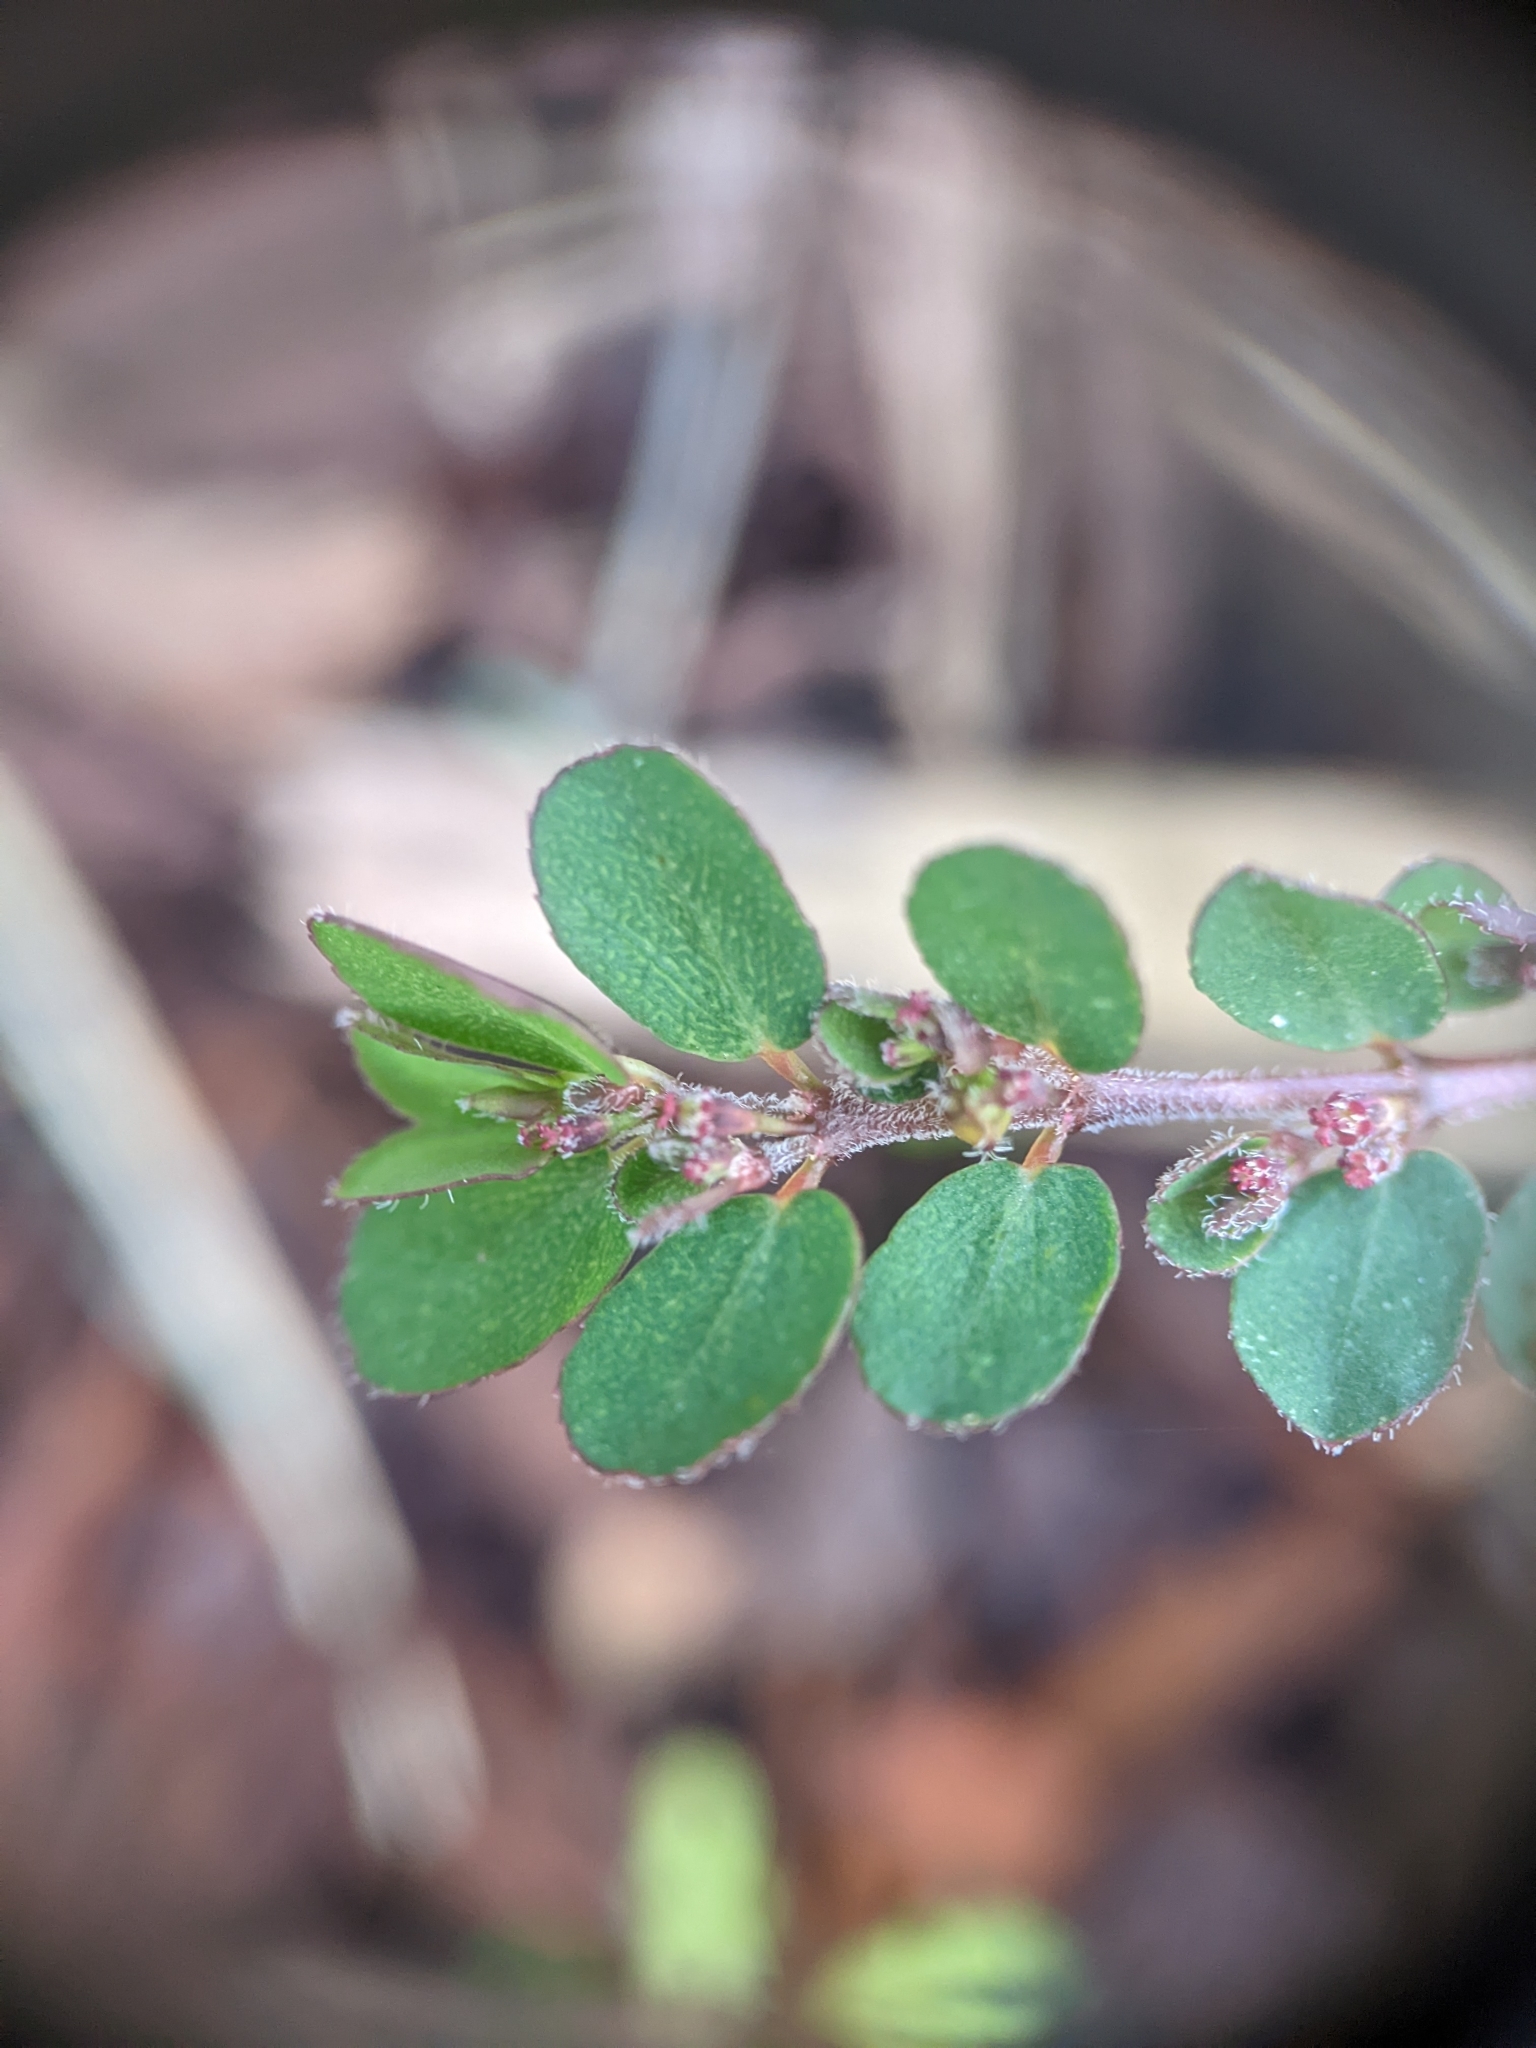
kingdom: Plantae
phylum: Tracheophyta
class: Magnoliopsida
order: Malpighiales
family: Euphorbiaceae
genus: Euphorbia
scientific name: Euphorbia prostrata
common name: Prostrate sandmat
